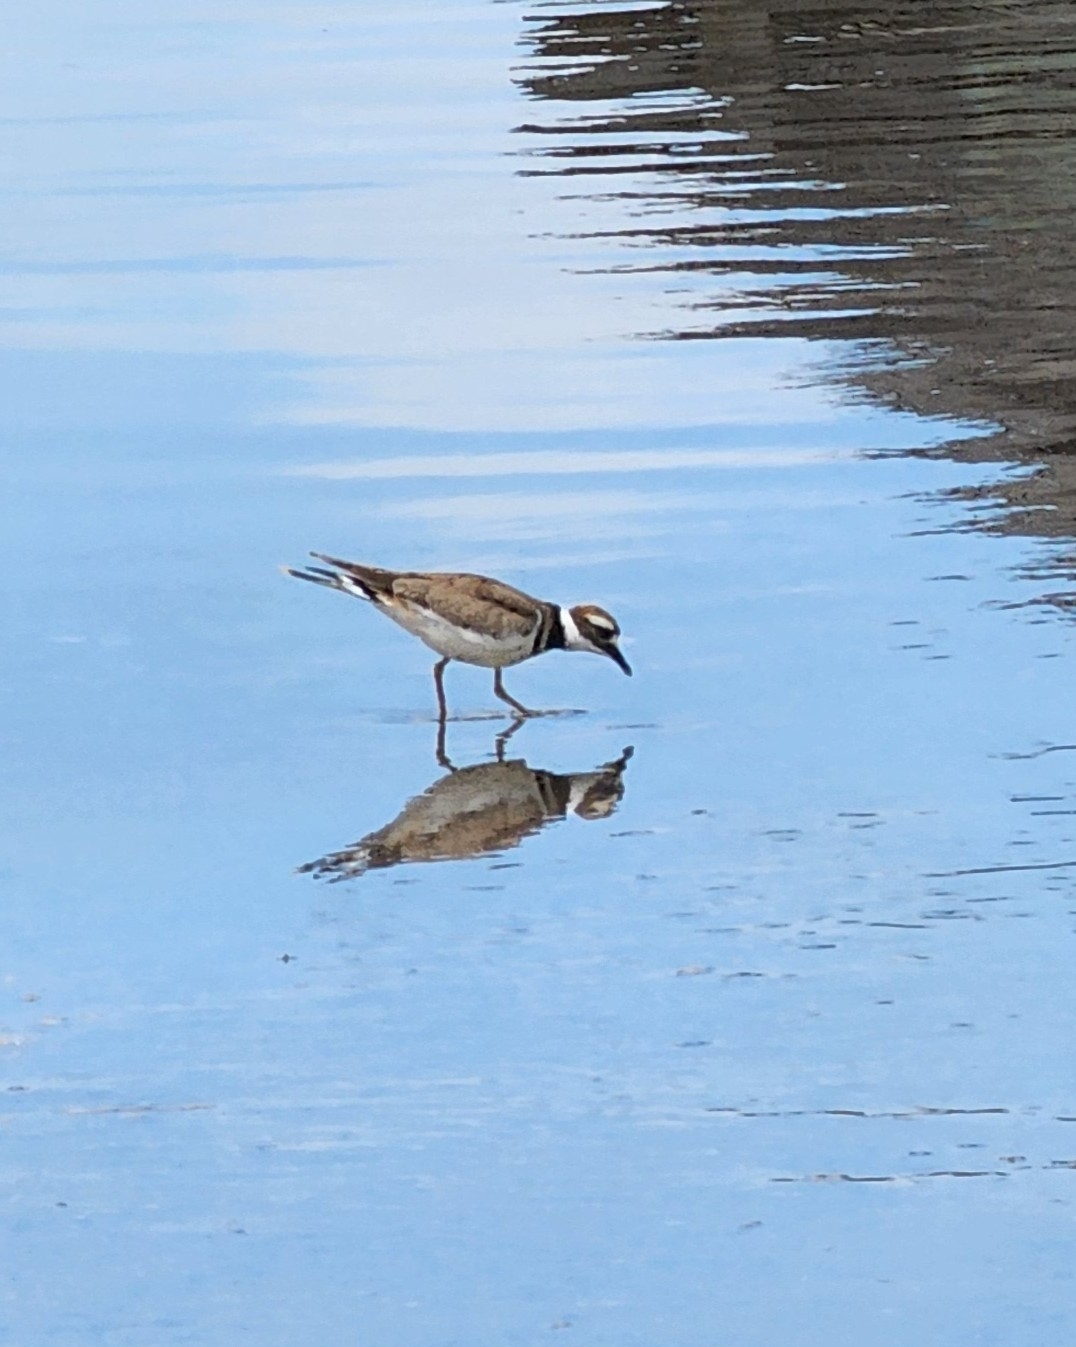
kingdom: Animalia
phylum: Chordata
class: Aves
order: Charadriiformes
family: Charadriidae
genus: Charadrius
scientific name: Charadrius vociferus
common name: Killdeer
